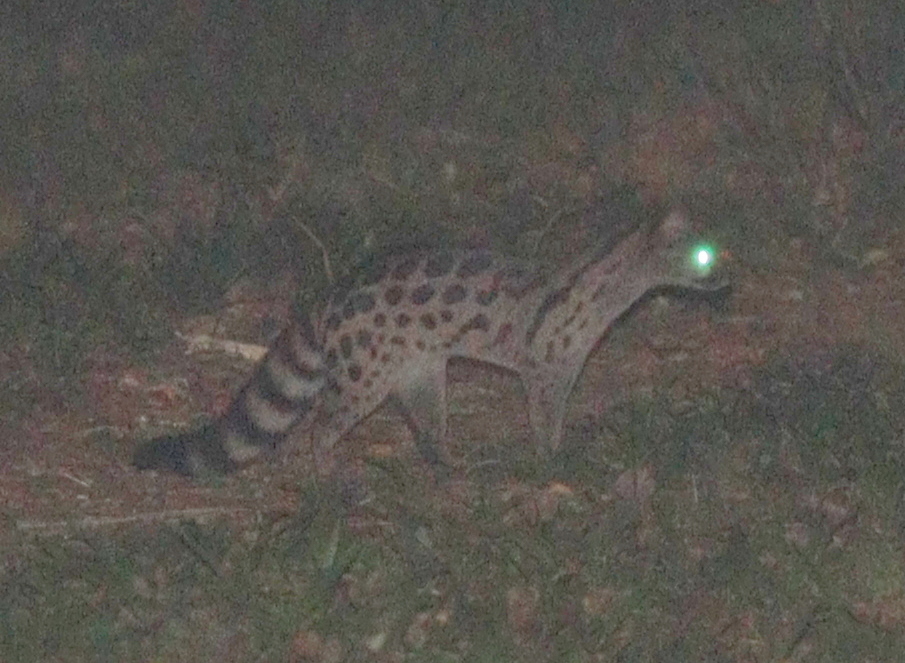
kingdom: Animalia
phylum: Chordata
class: Mammalia
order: Carnivora
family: Viverridae
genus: Genetta
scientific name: Genetta maculata
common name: Rusty-spotted genet
